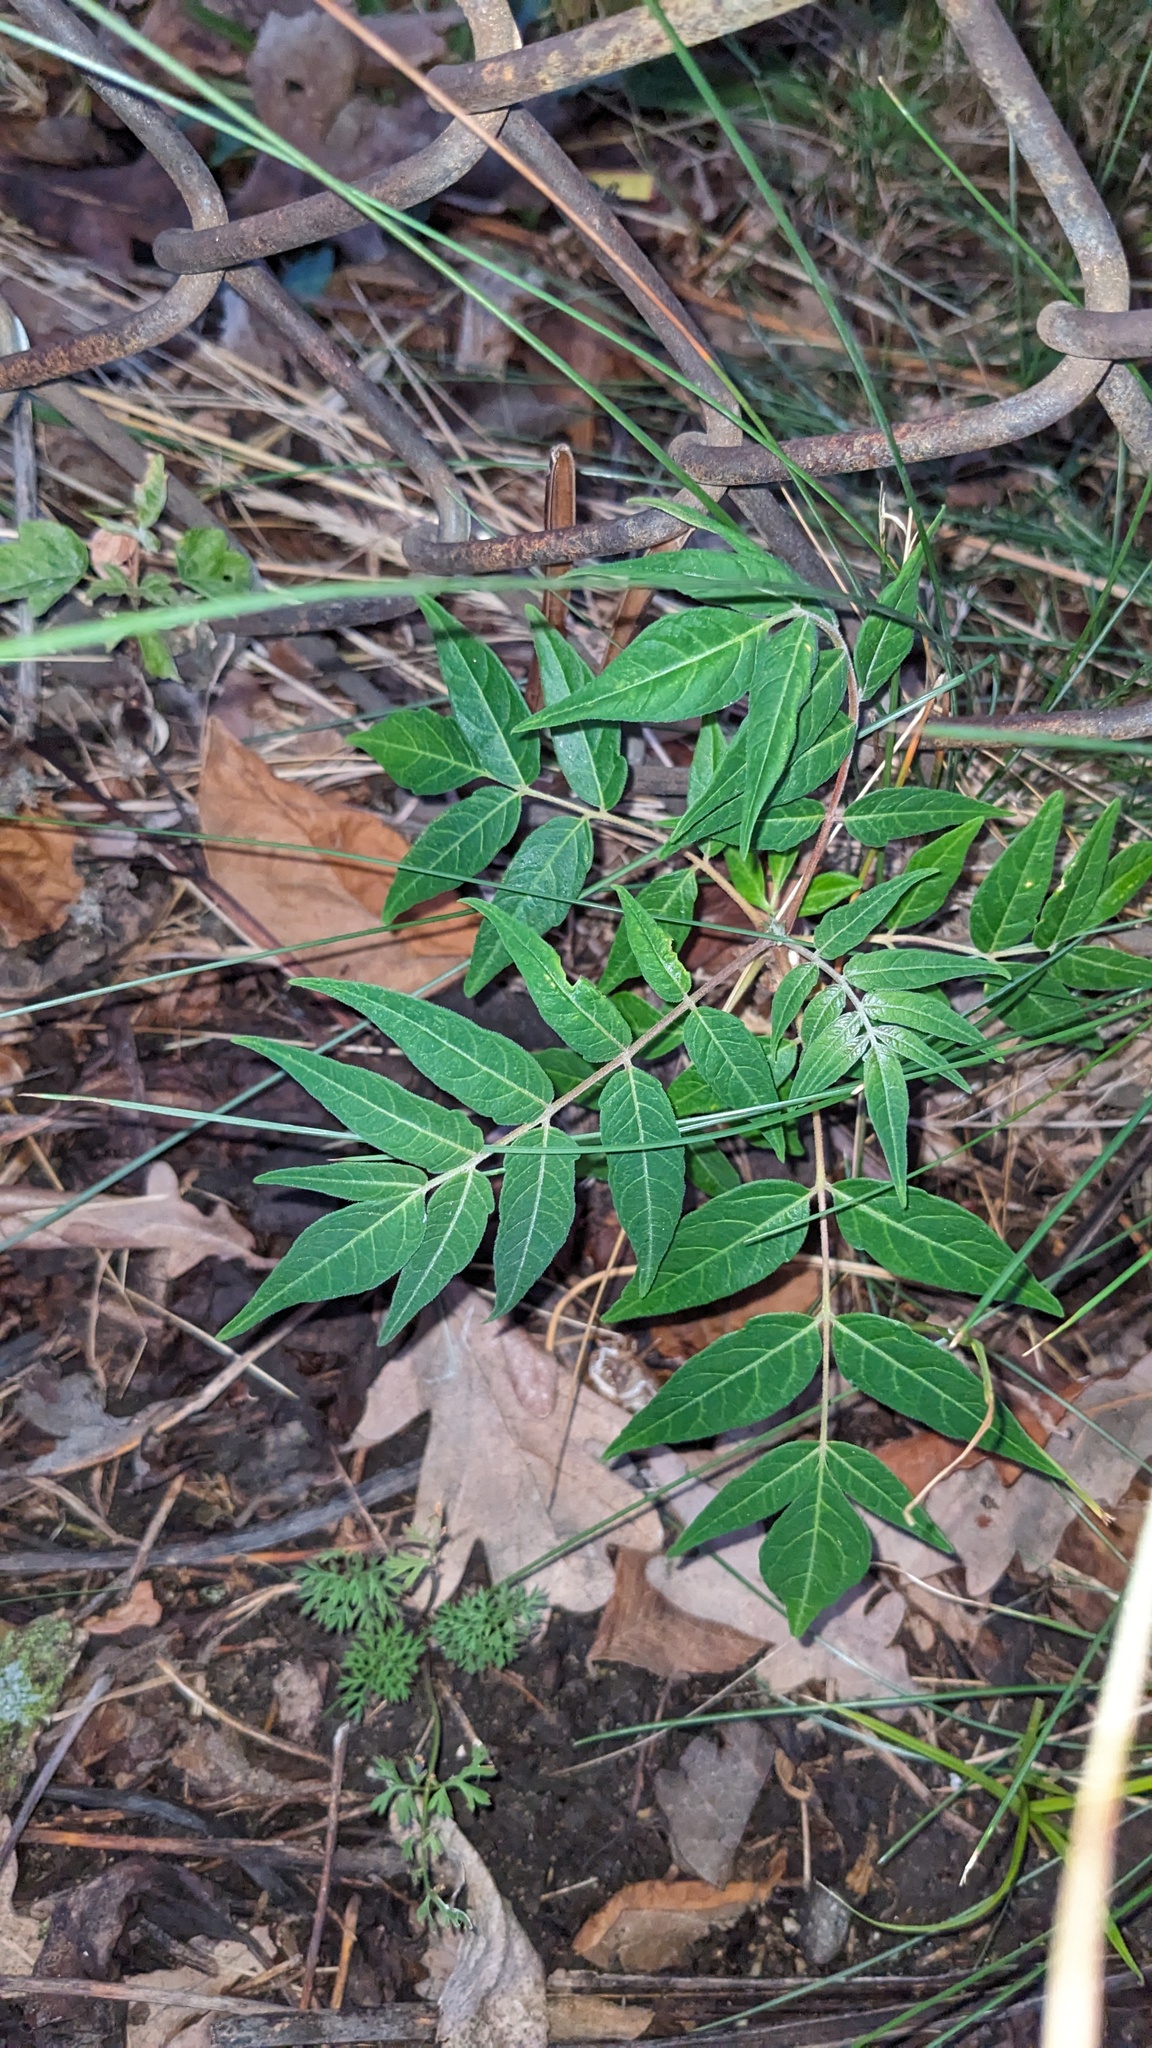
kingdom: Plantae
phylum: Tracheophyta
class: Magnoliopsida
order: Sapindales
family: Simaroubaceae
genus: Ailanthus
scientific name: Ailanthus altissima
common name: Tree-of-heaven
